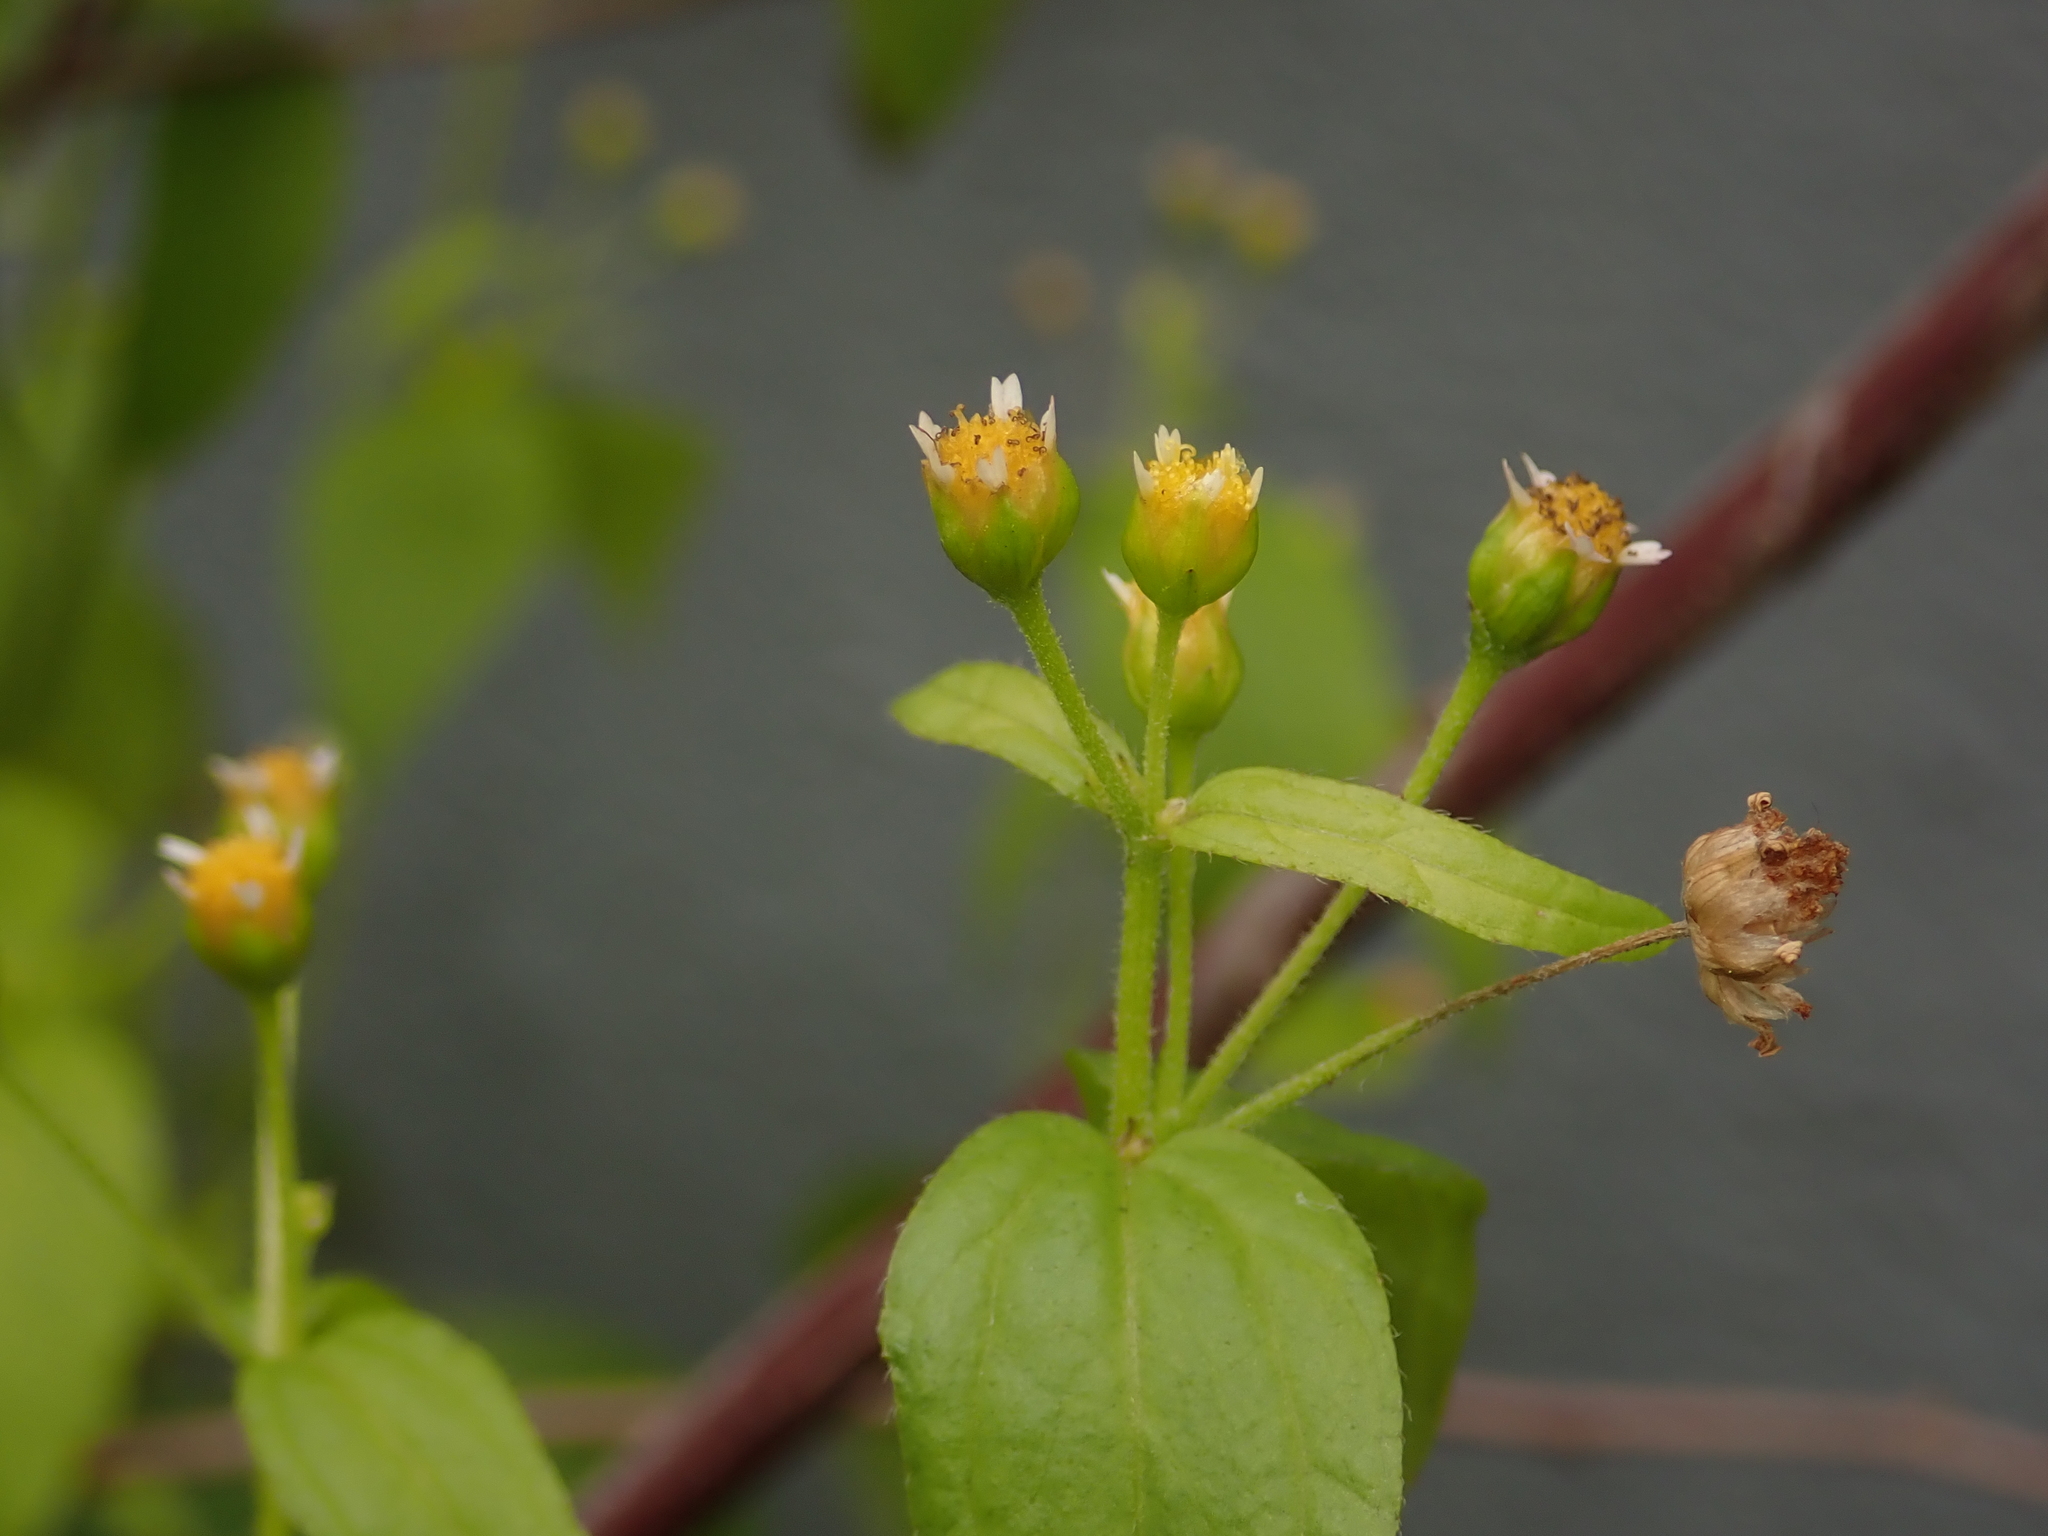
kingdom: Plantae
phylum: Tracheophyta
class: Magnoliopsida
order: Asterales
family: Asteraceae
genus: Galinsoga
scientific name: Galinsoga parviflora
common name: Gallant soldier
